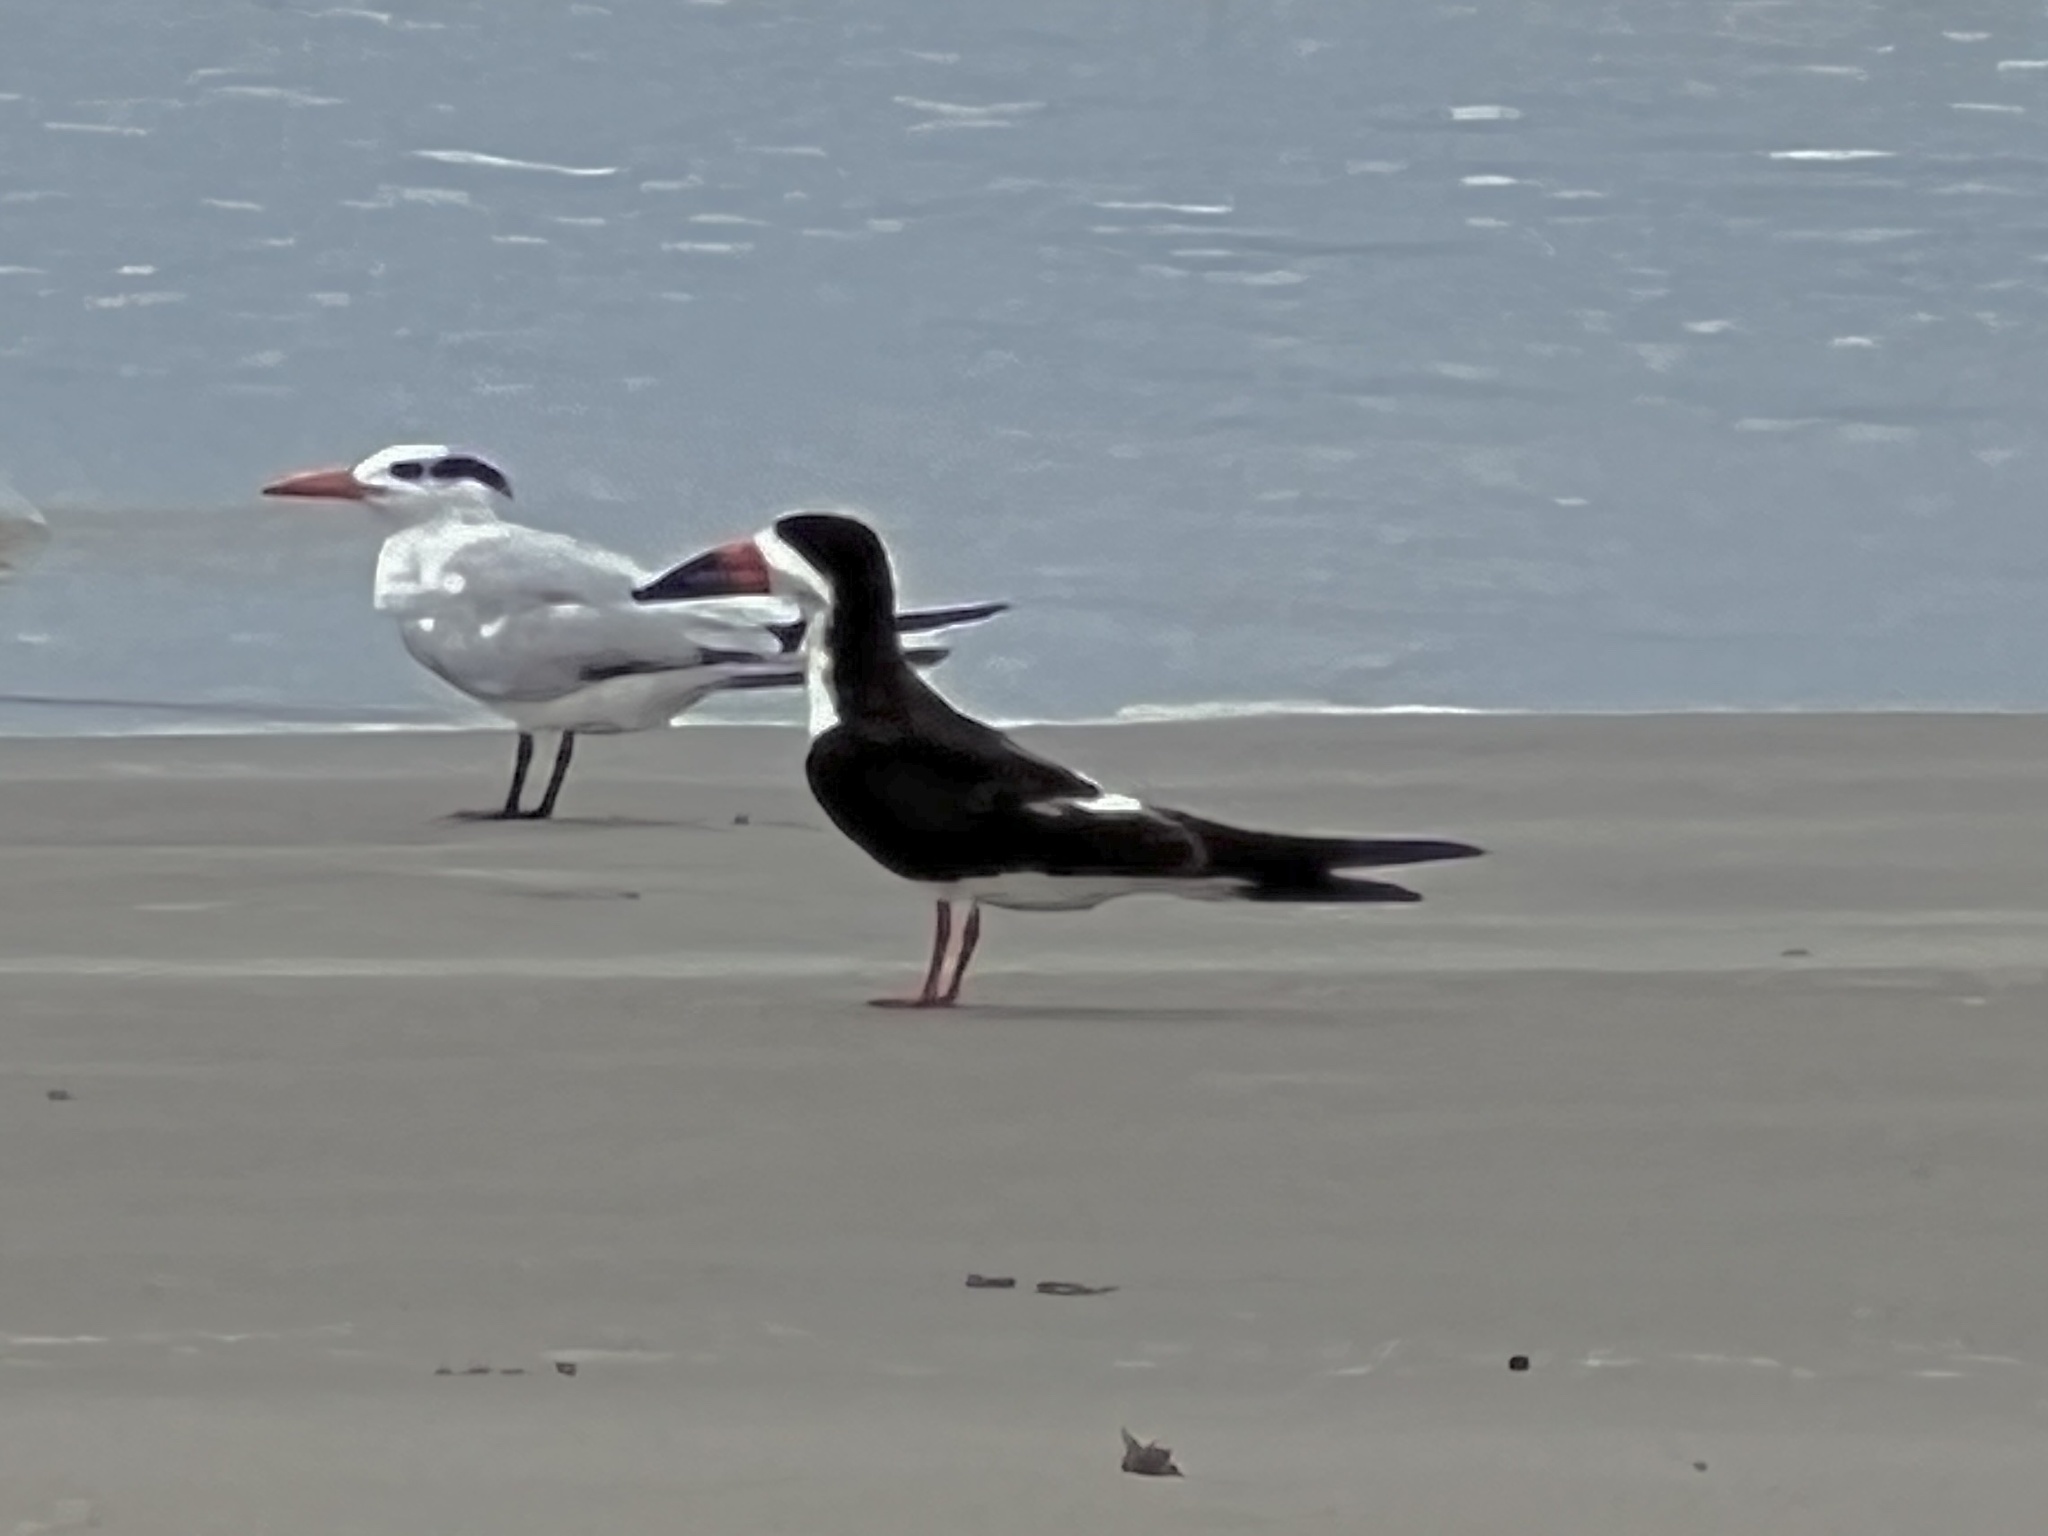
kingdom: Animalia
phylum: Chordata
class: Aves
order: Charadriiformes
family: Laridae
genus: Rynchops
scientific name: Rynchops niger
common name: Black skimmer
